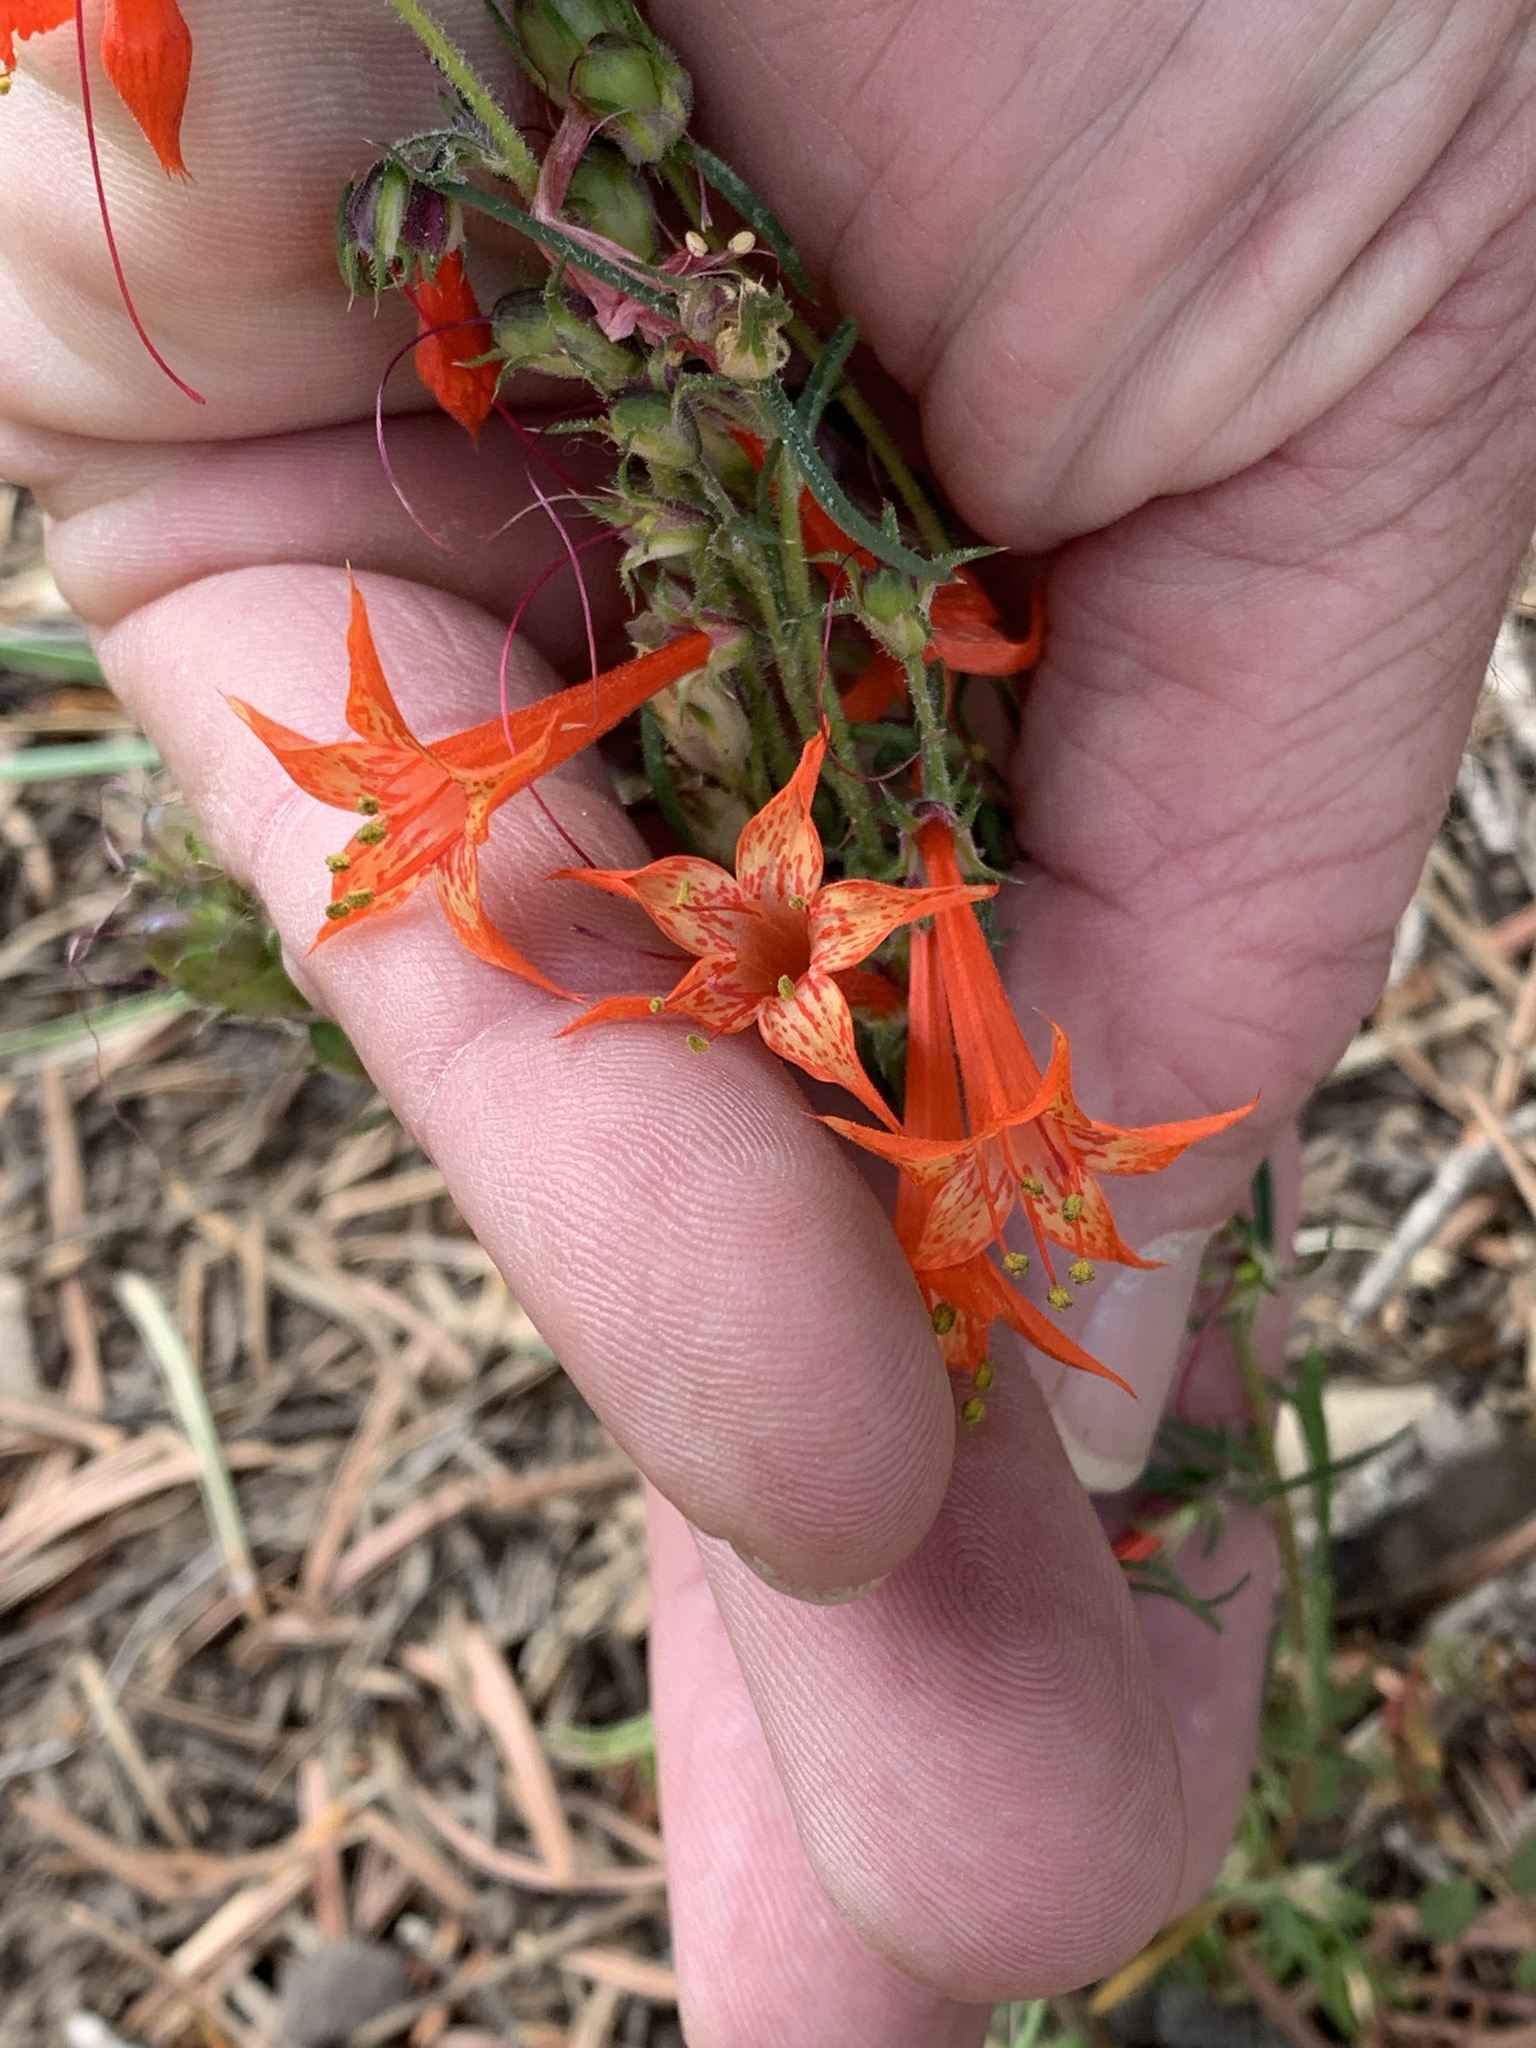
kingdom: Plantae
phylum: Tracheophyta
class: Magnoliopsida
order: Ericales
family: Polemoniaceae
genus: Ipomopsis
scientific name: Ipomopsis aggregata
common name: Scarlet gilia
